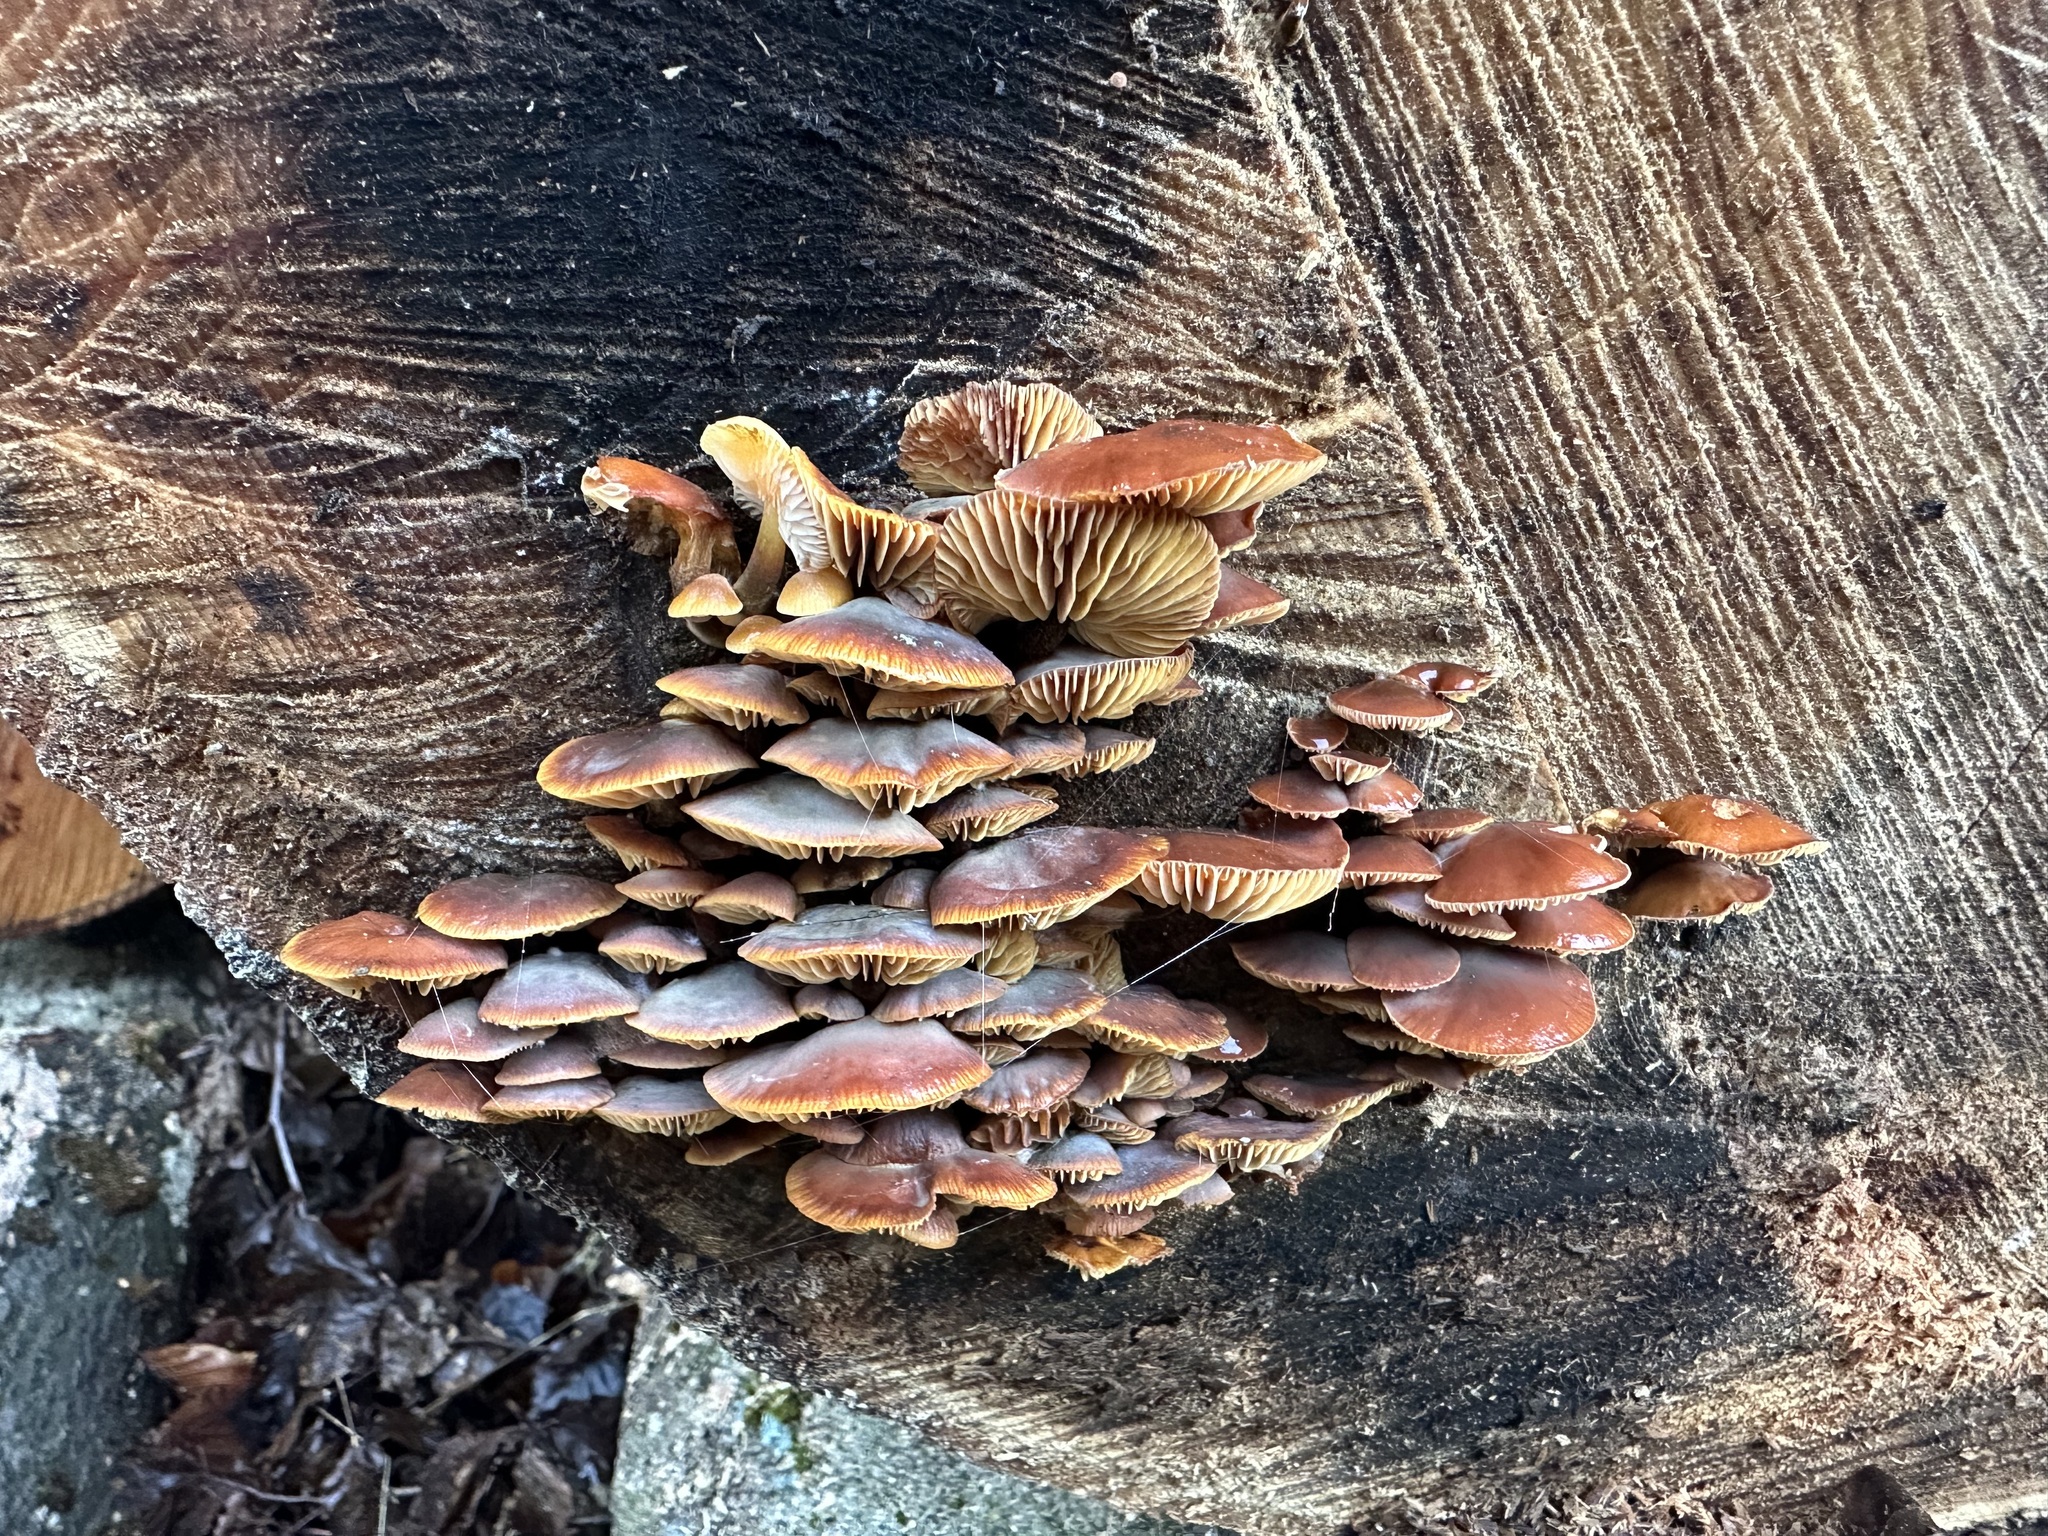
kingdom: Fungi
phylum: Basidiomycota
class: Agaricomycetes
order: Agaricales
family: Physalacriaceae
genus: Flammulina
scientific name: Flammulina
